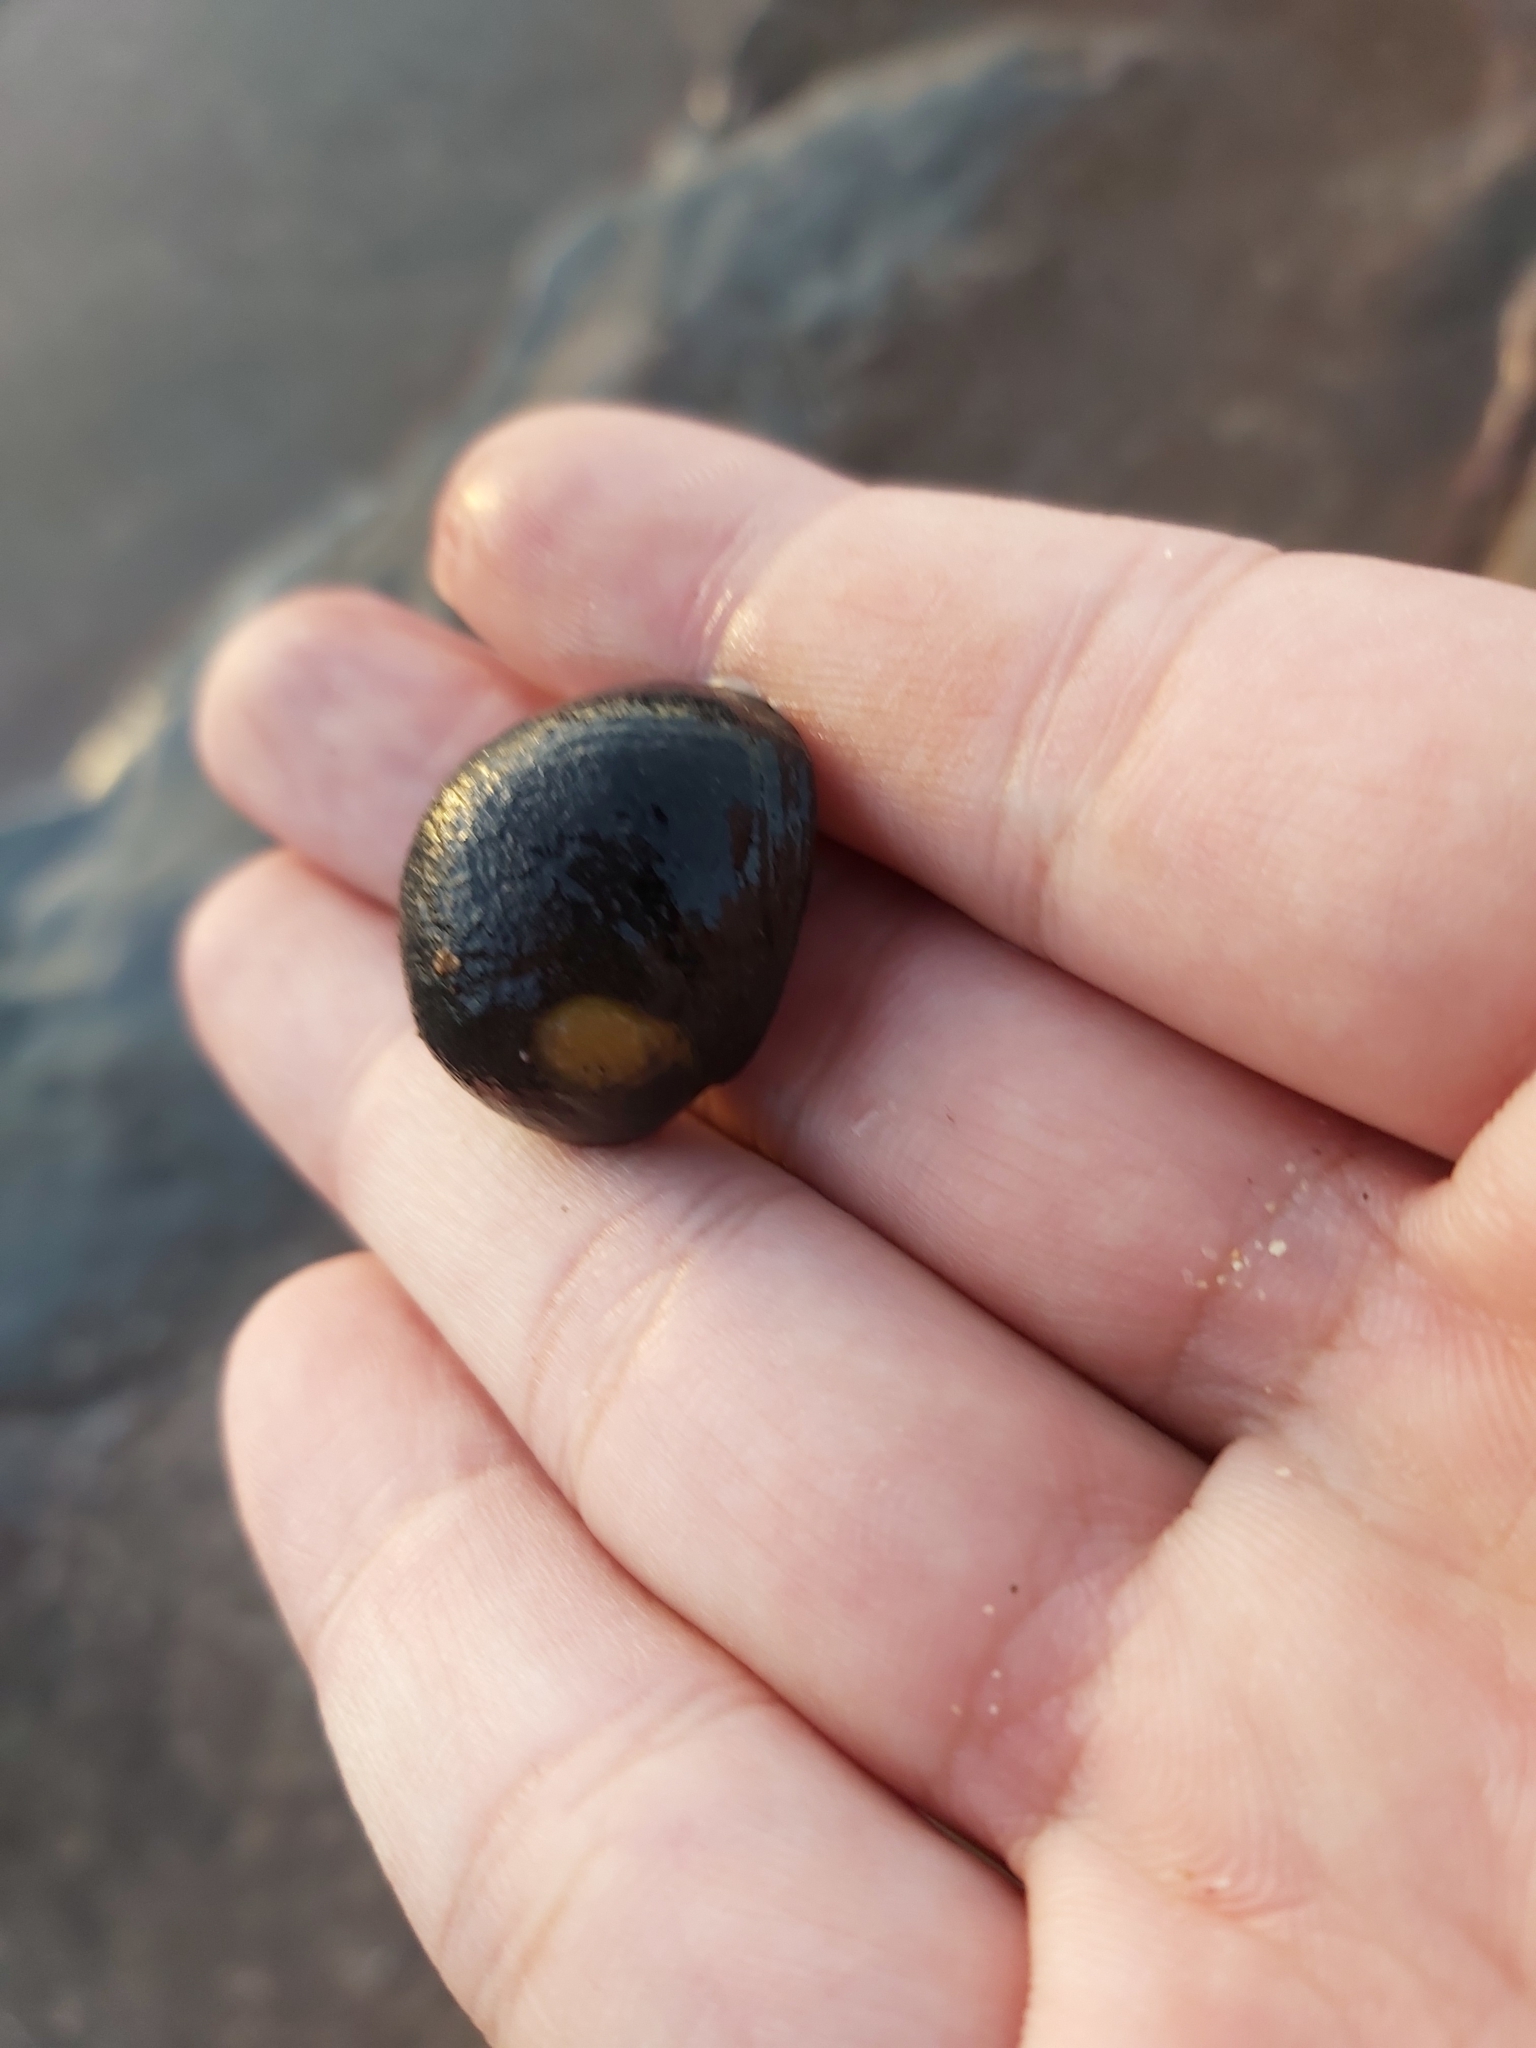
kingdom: Animalia
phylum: Mollusca
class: Gastropoda
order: Cycloneritida
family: Neritidae
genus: Nerita
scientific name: Nerita melanotragus
